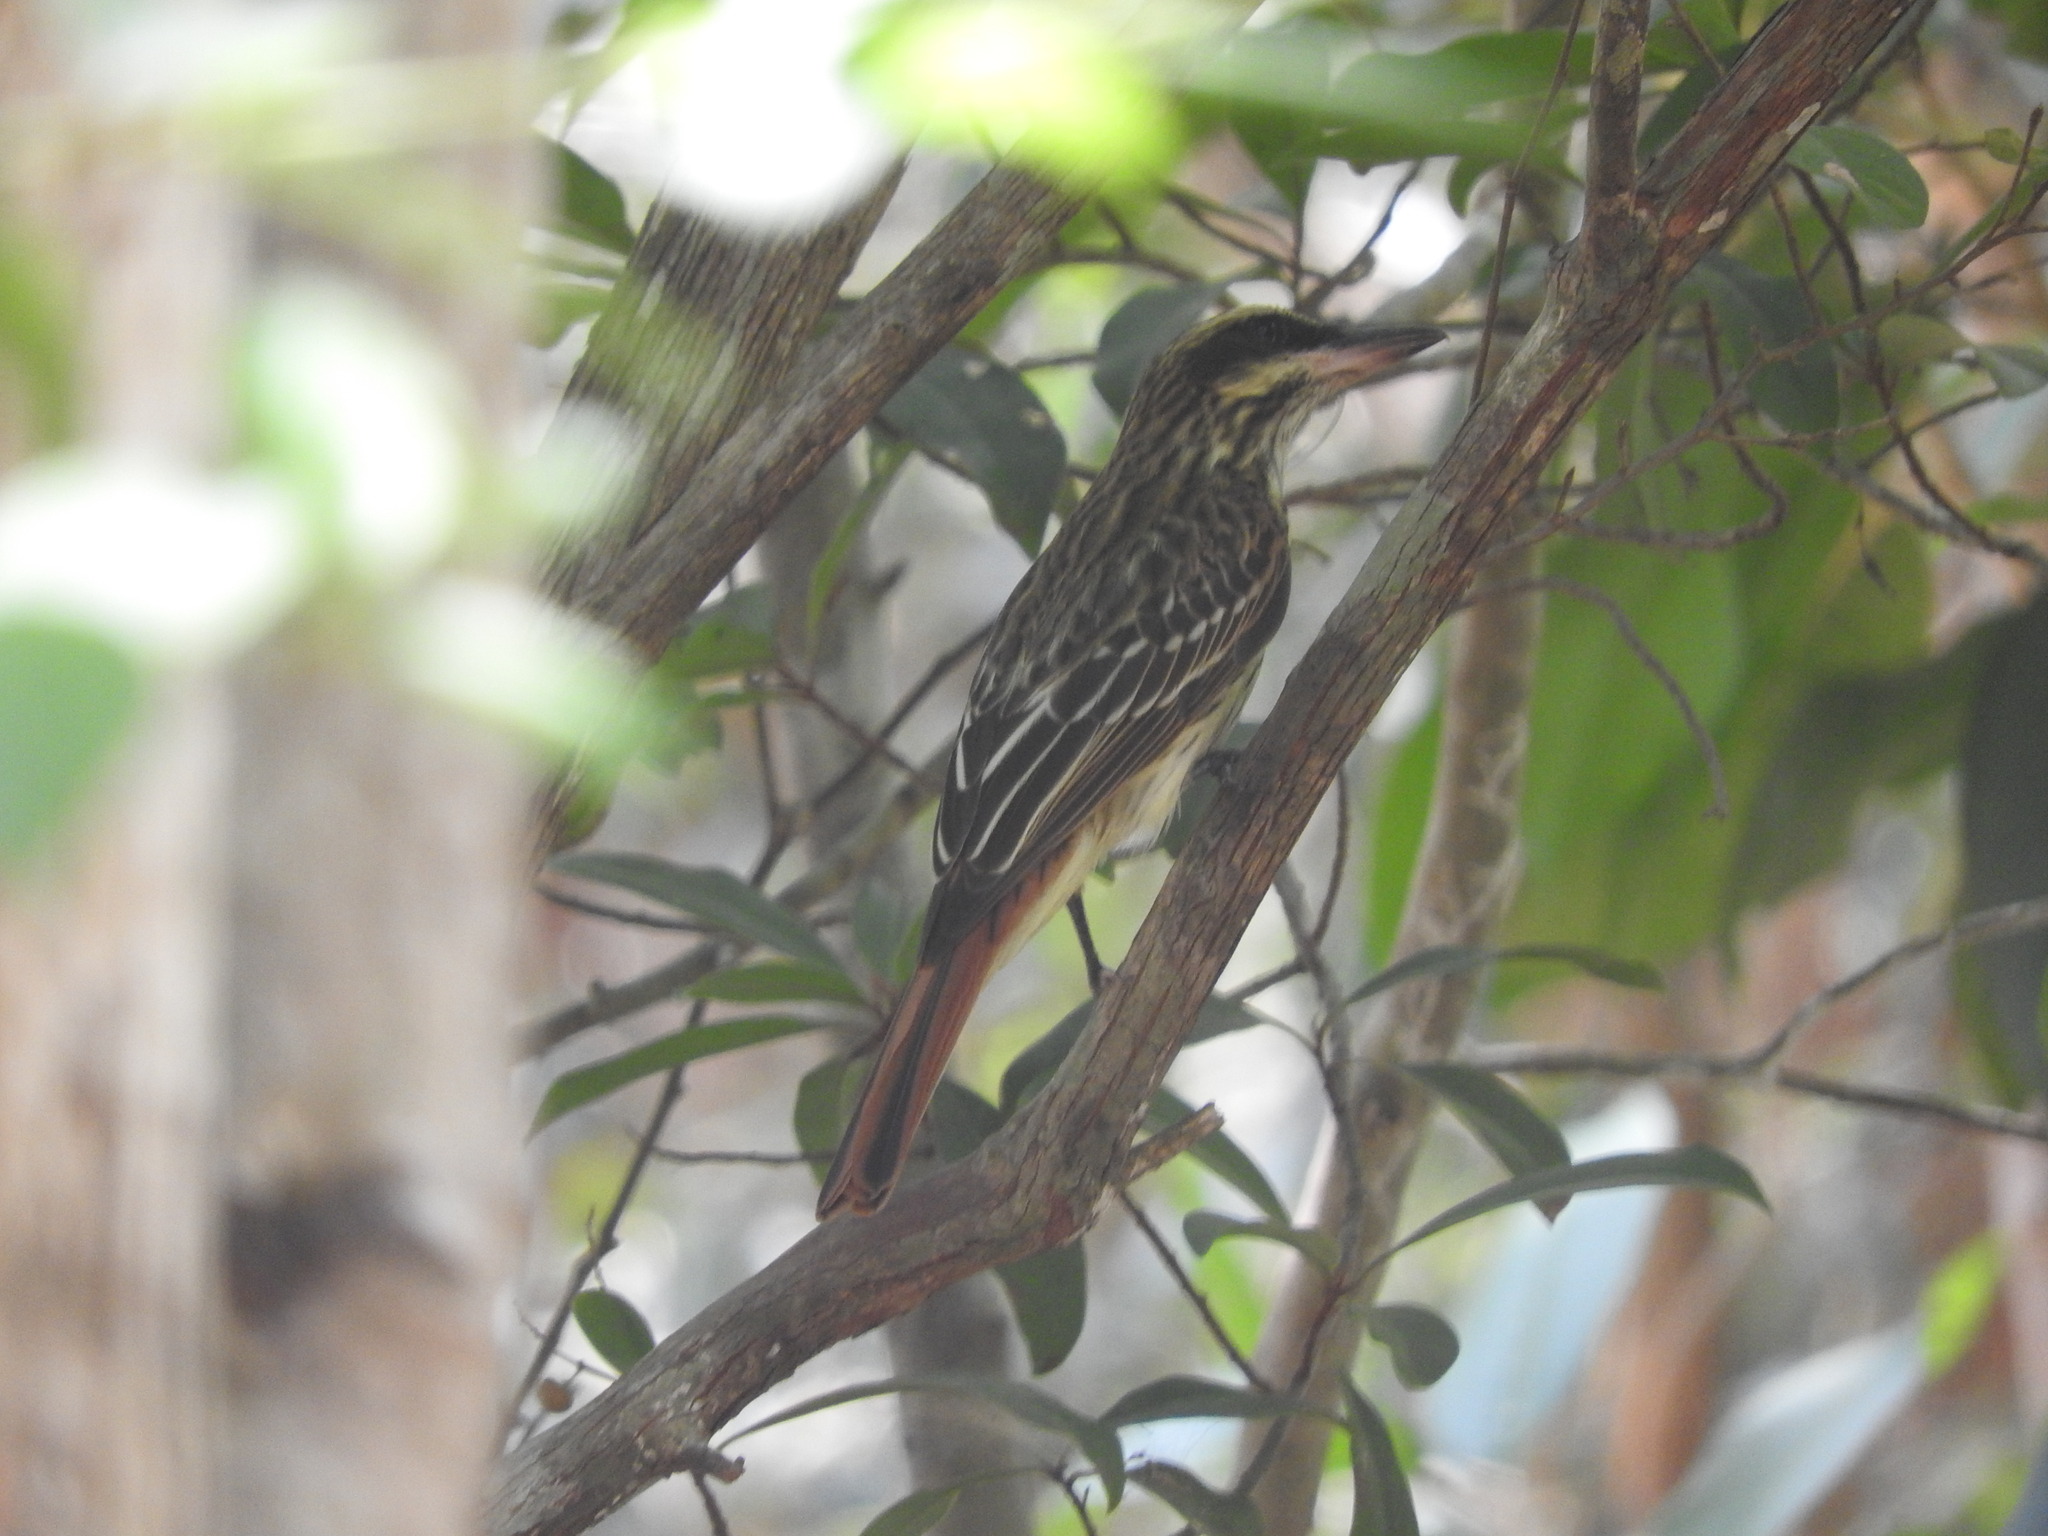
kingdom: Animalia
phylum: Chordata
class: Aves
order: Passeriformes
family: Tyrannidae
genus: Myiodynastes
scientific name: Myiodynastes maculatus
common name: Streaked flycatcher
